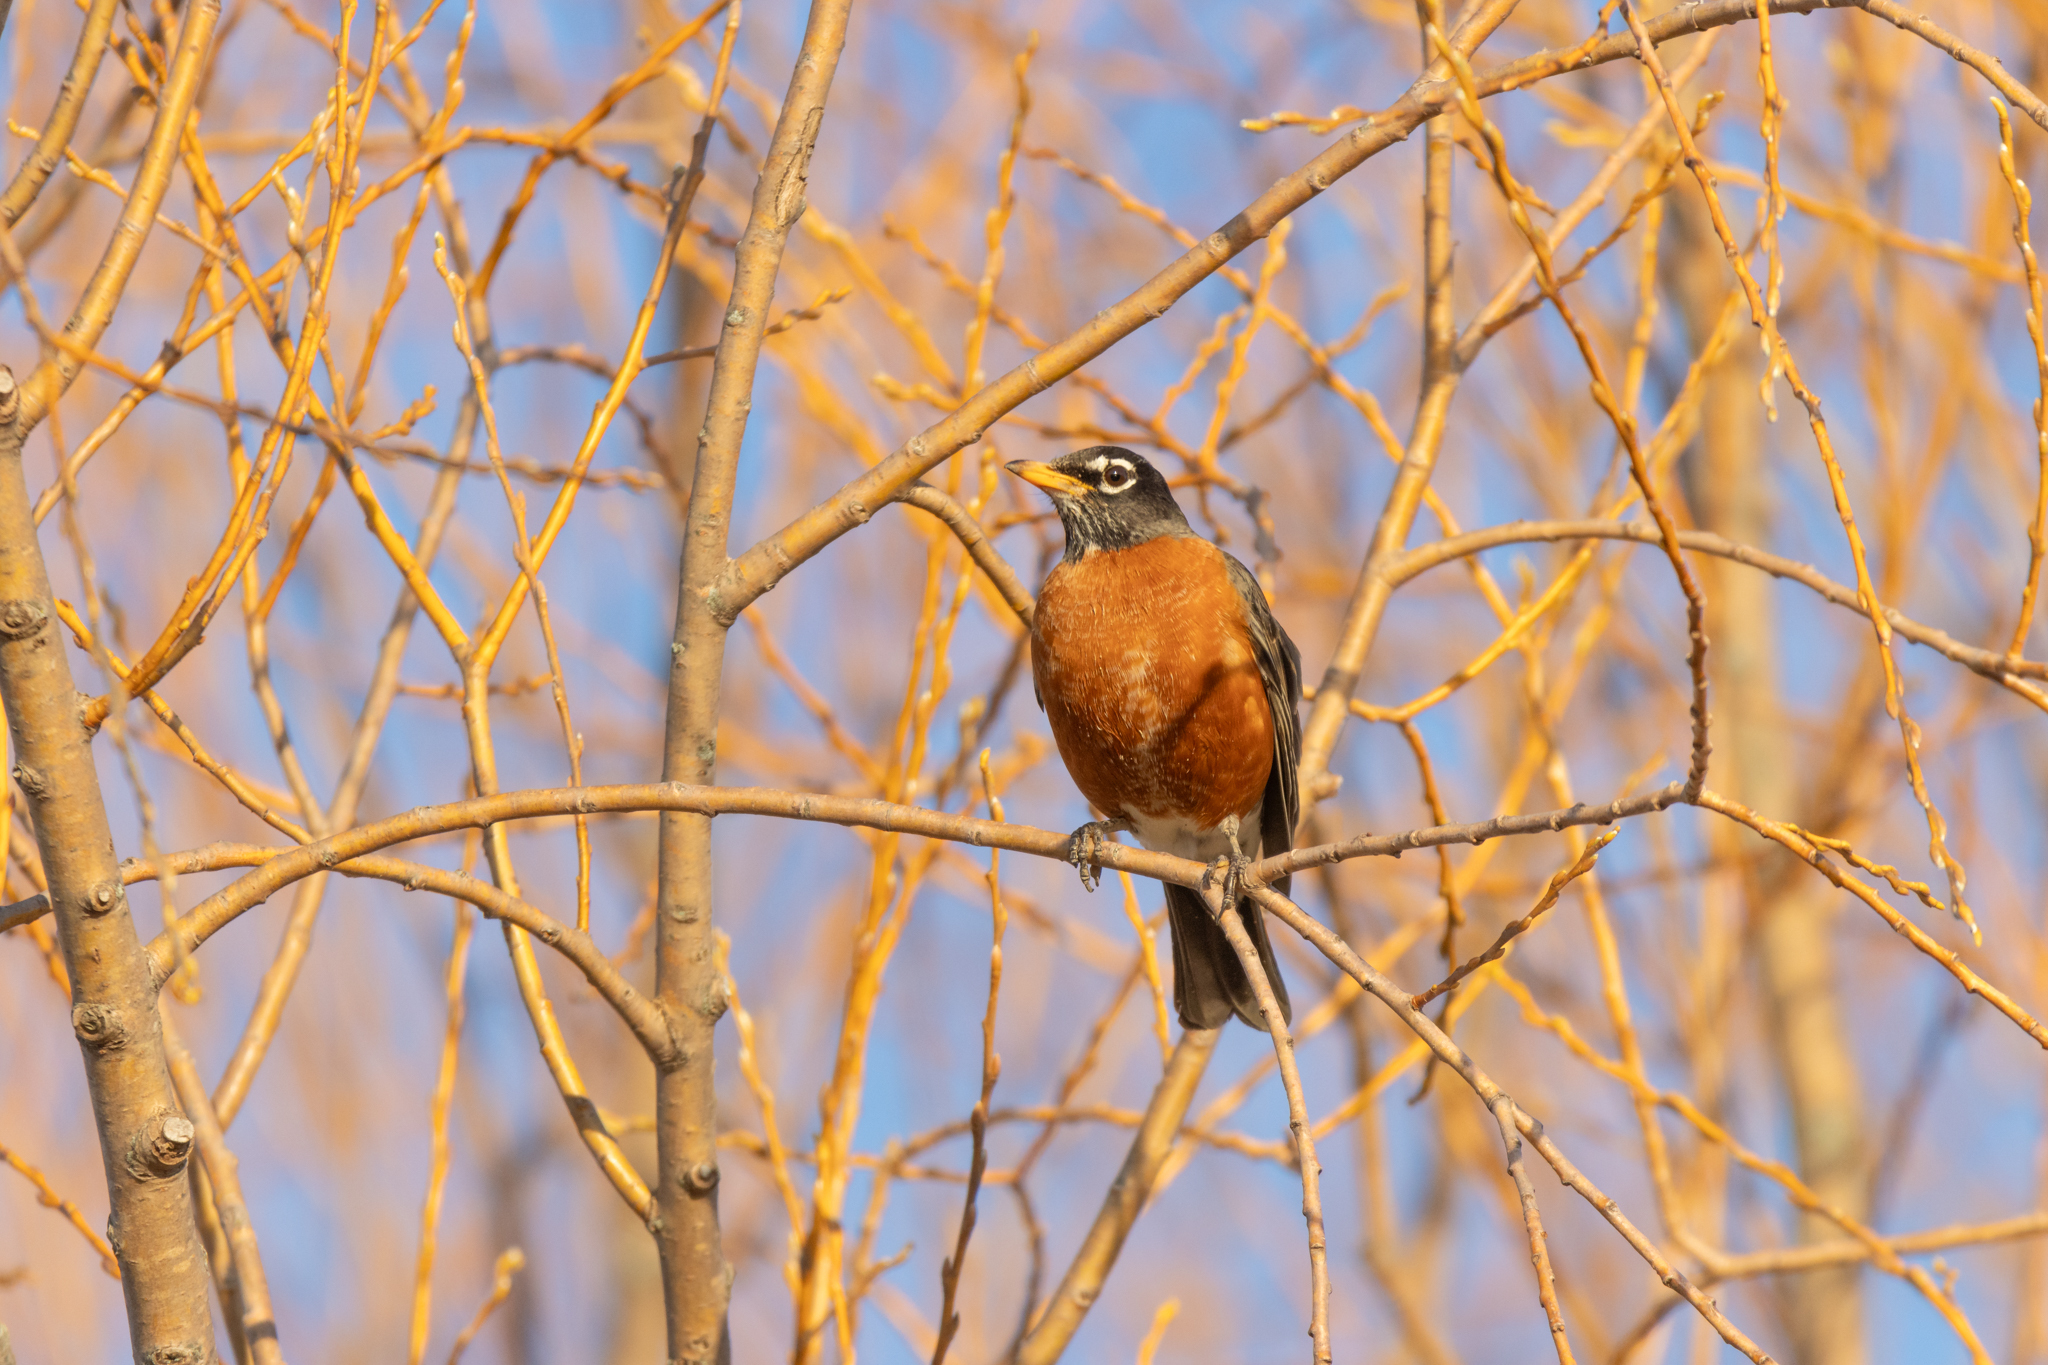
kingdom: Animalia
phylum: Chordata
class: Aves
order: Passeriformes
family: Turdidae
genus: Turdus
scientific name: Turdus migratorius
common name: American robin
